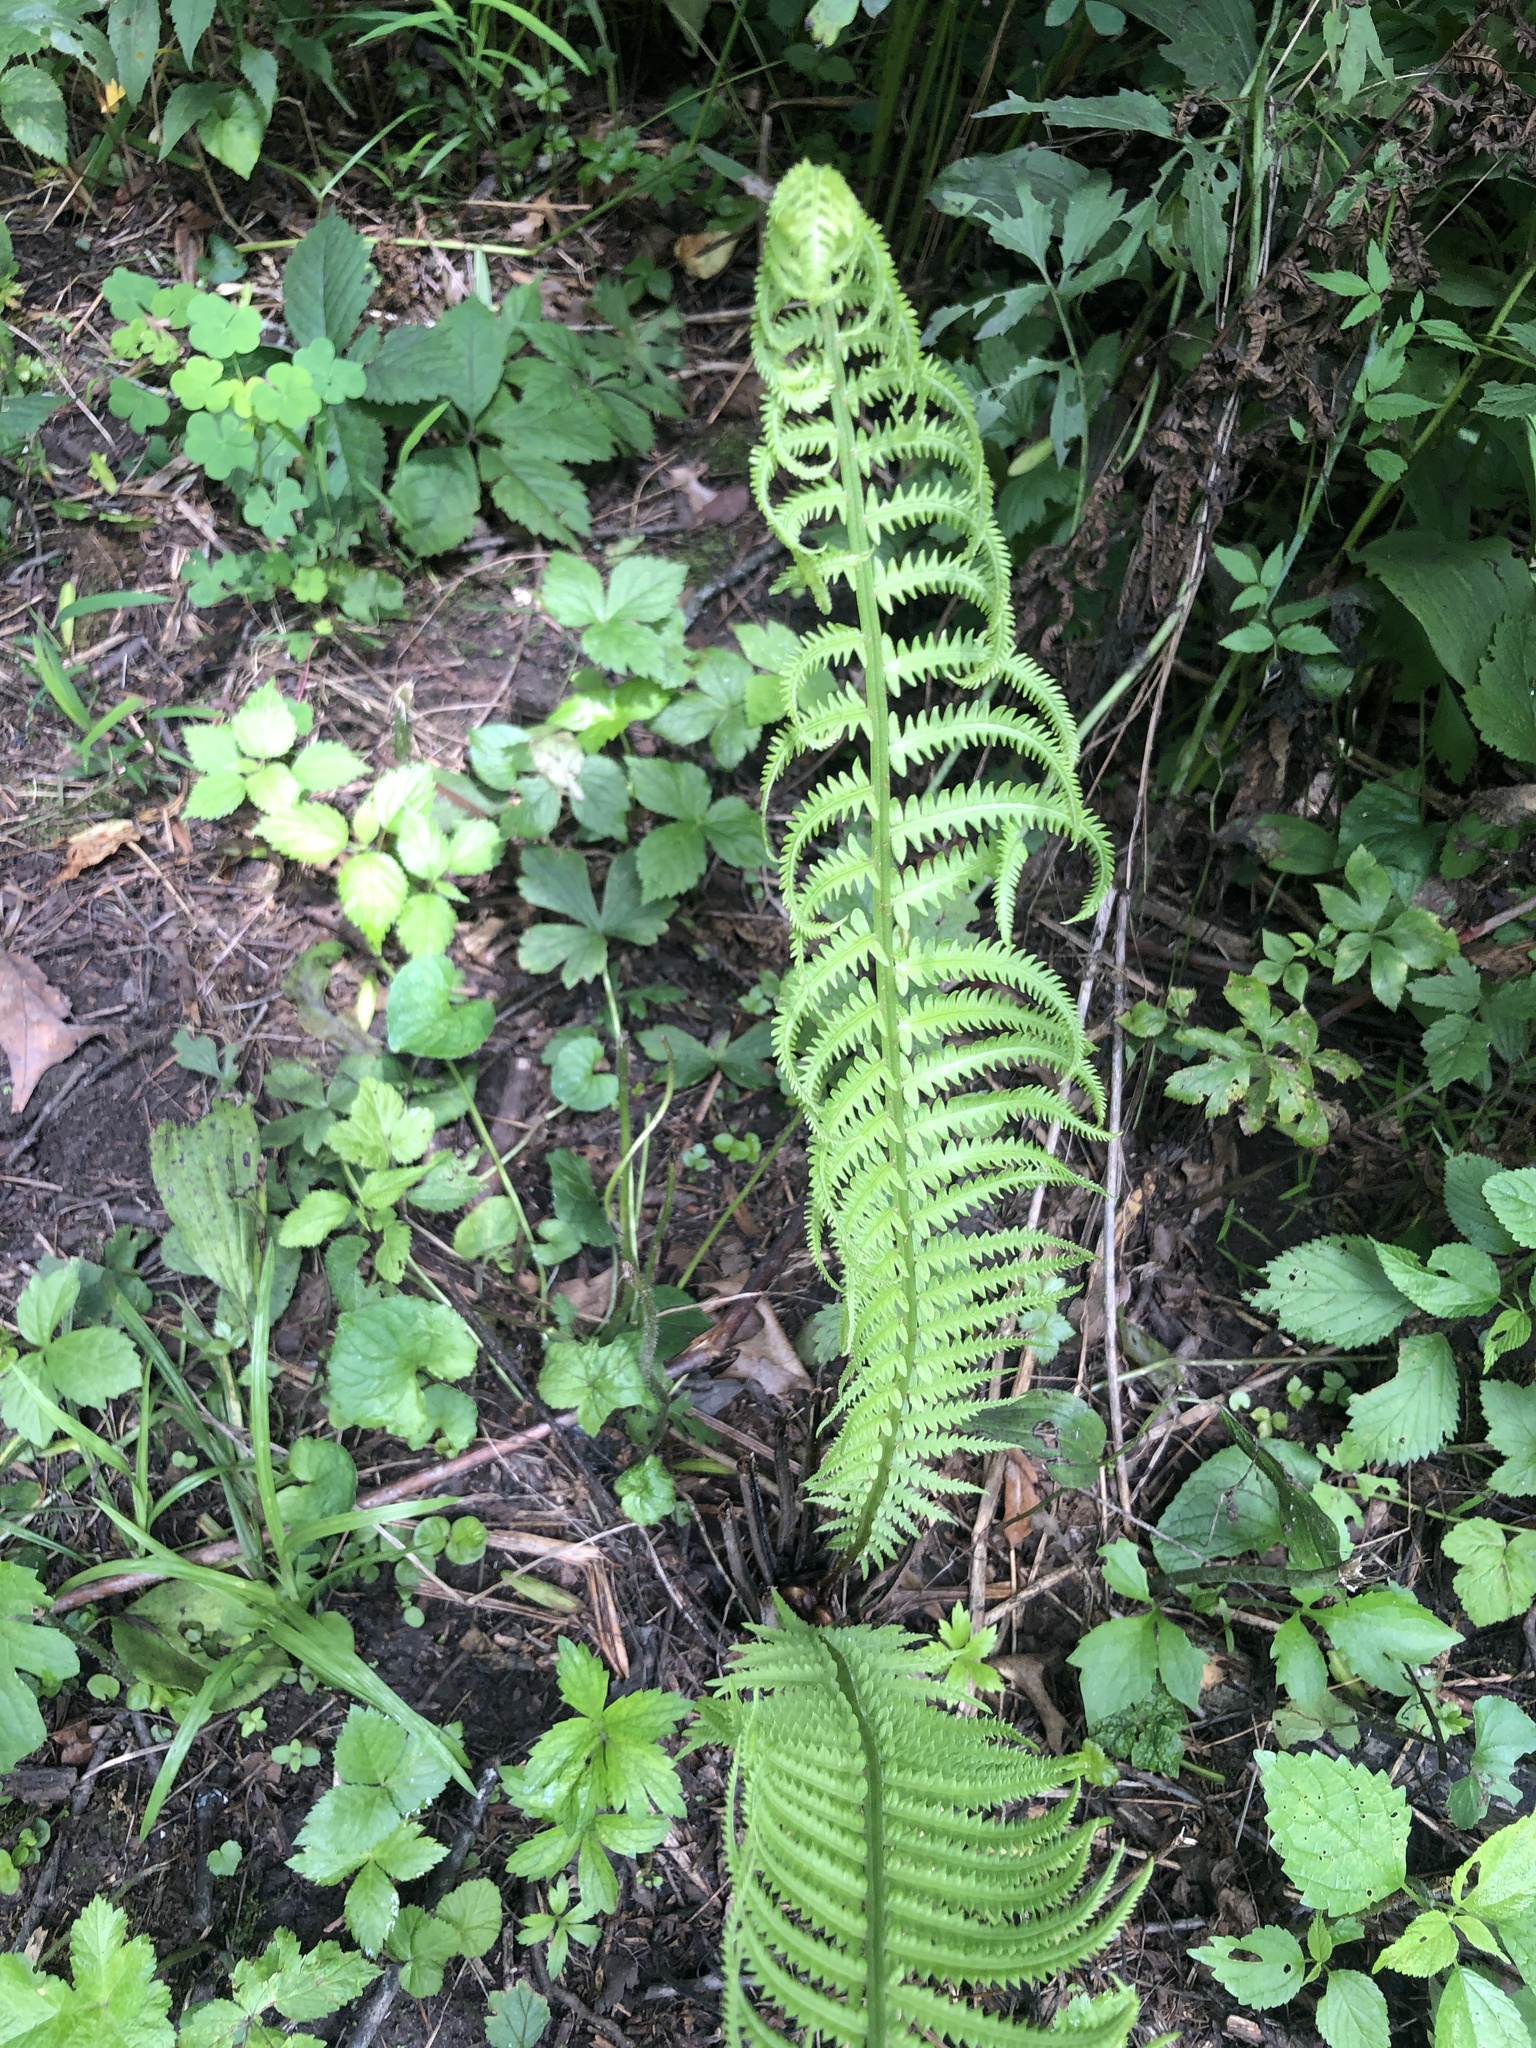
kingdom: Plantae
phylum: Tracheophyta
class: Polypodiopsida
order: Polypodiales
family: Onocleaceae
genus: Matteuccia
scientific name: Matteuccia struthiopteris
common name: Ostrich fern
